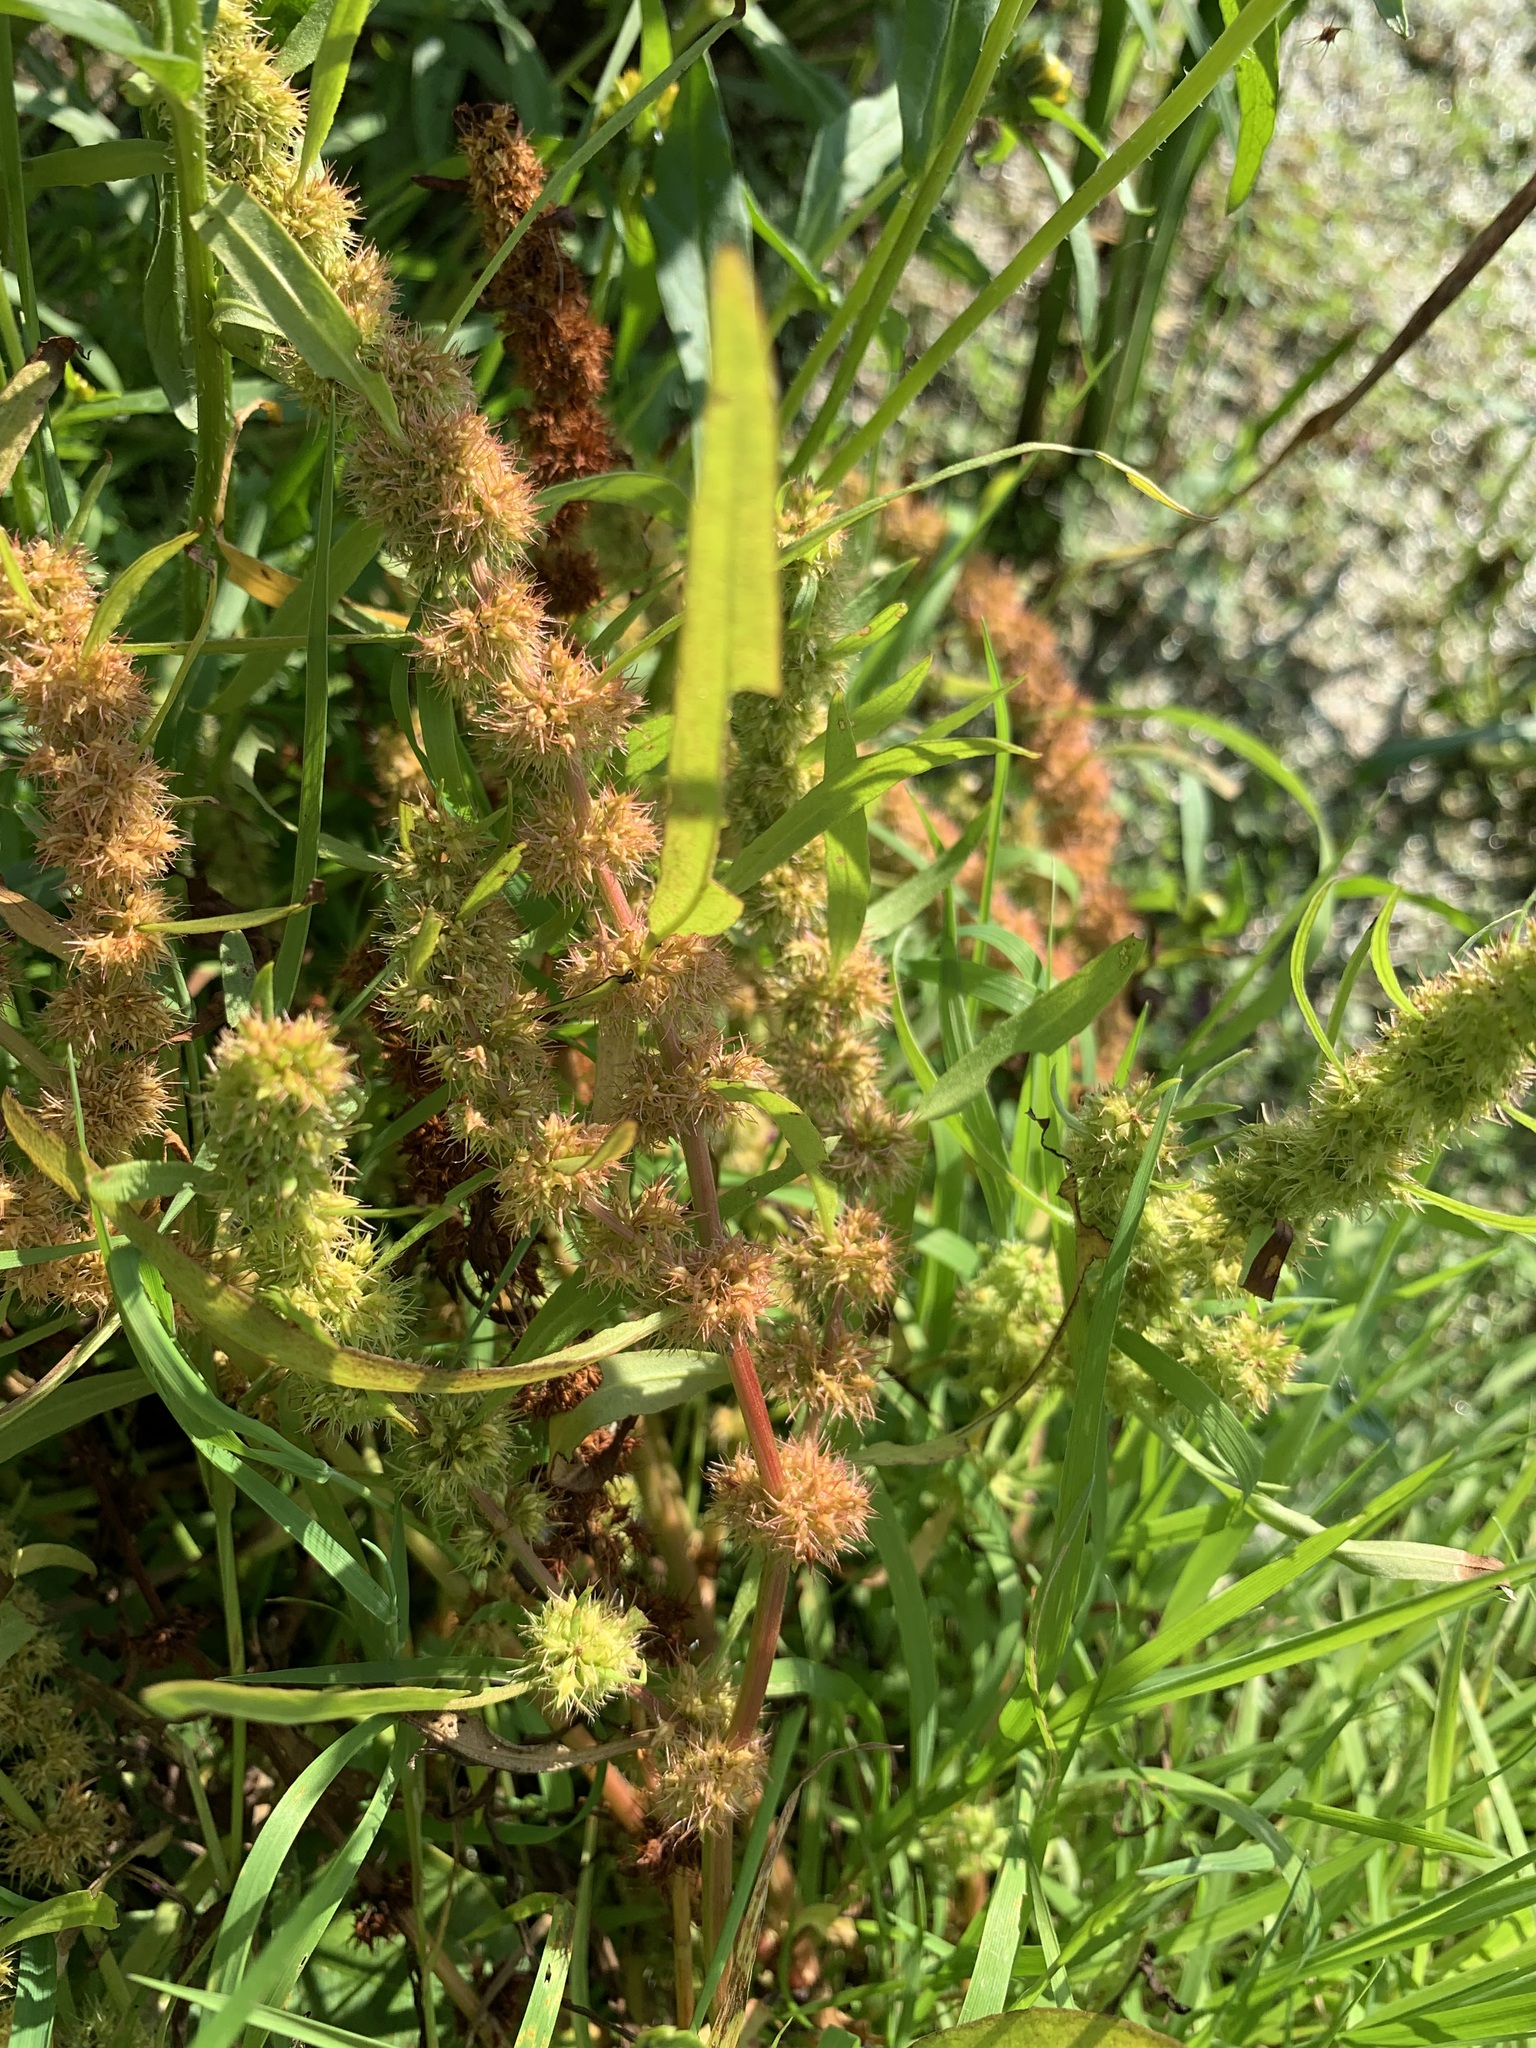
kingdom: Plantae
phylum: Tracheophyta
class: Magnoliopsida
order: Caryophyllales
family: Polygonaceae
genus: Rumex
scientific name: Rumex maritimus
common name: Golden dock
